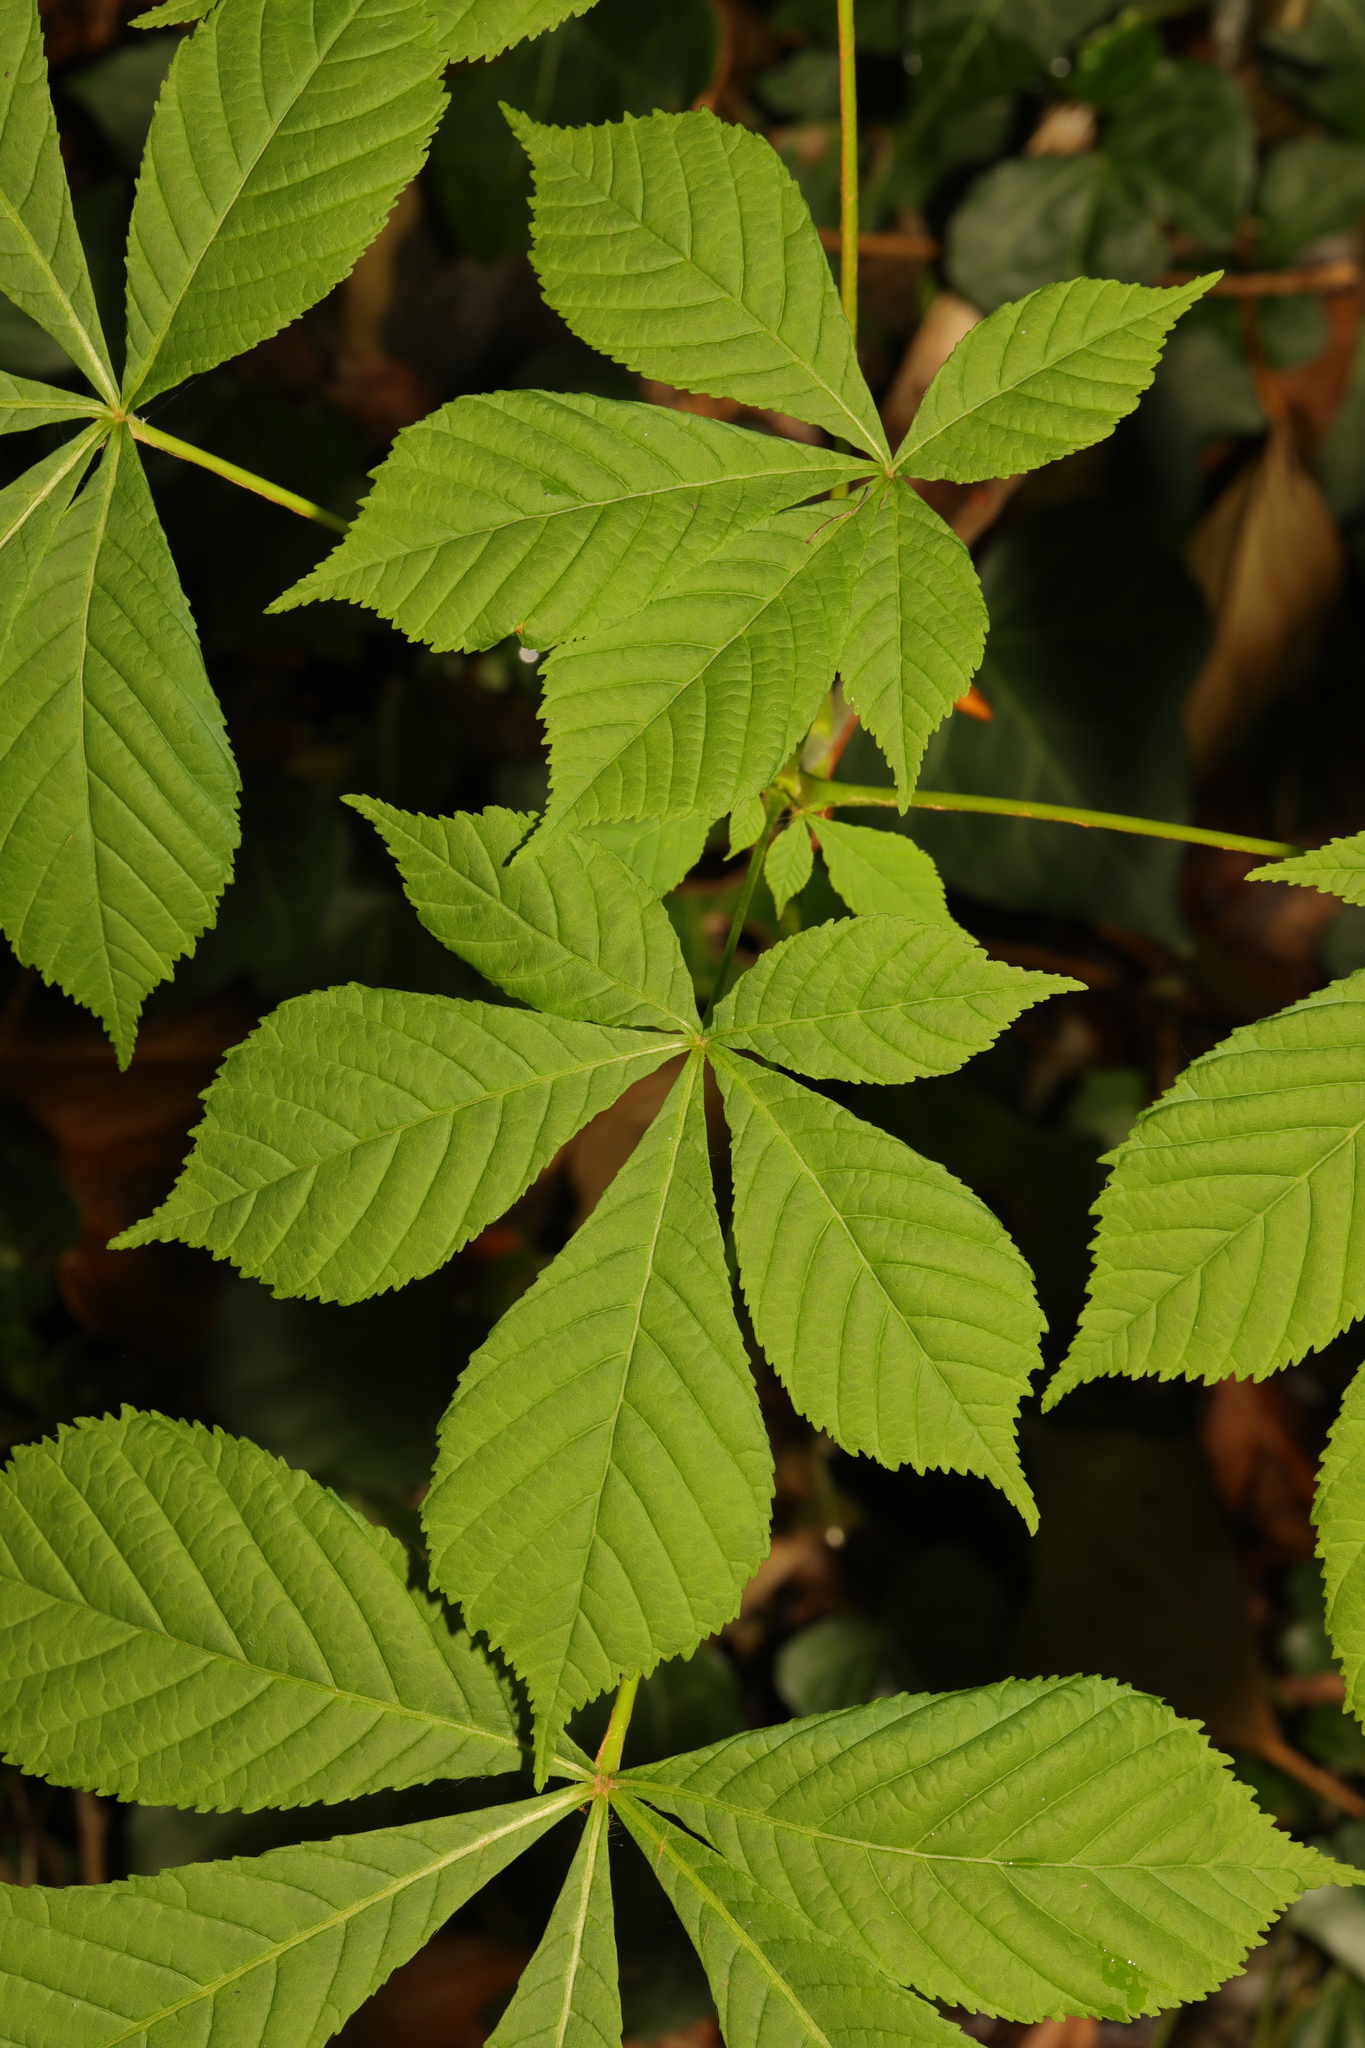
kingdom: Plantae
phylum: Tracheophyta
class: Magnoliopsida
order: Sapindales
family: Sapindaceae
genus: Aesculus
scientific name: Aesculus hippocastanum
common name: Horse-chestnut
